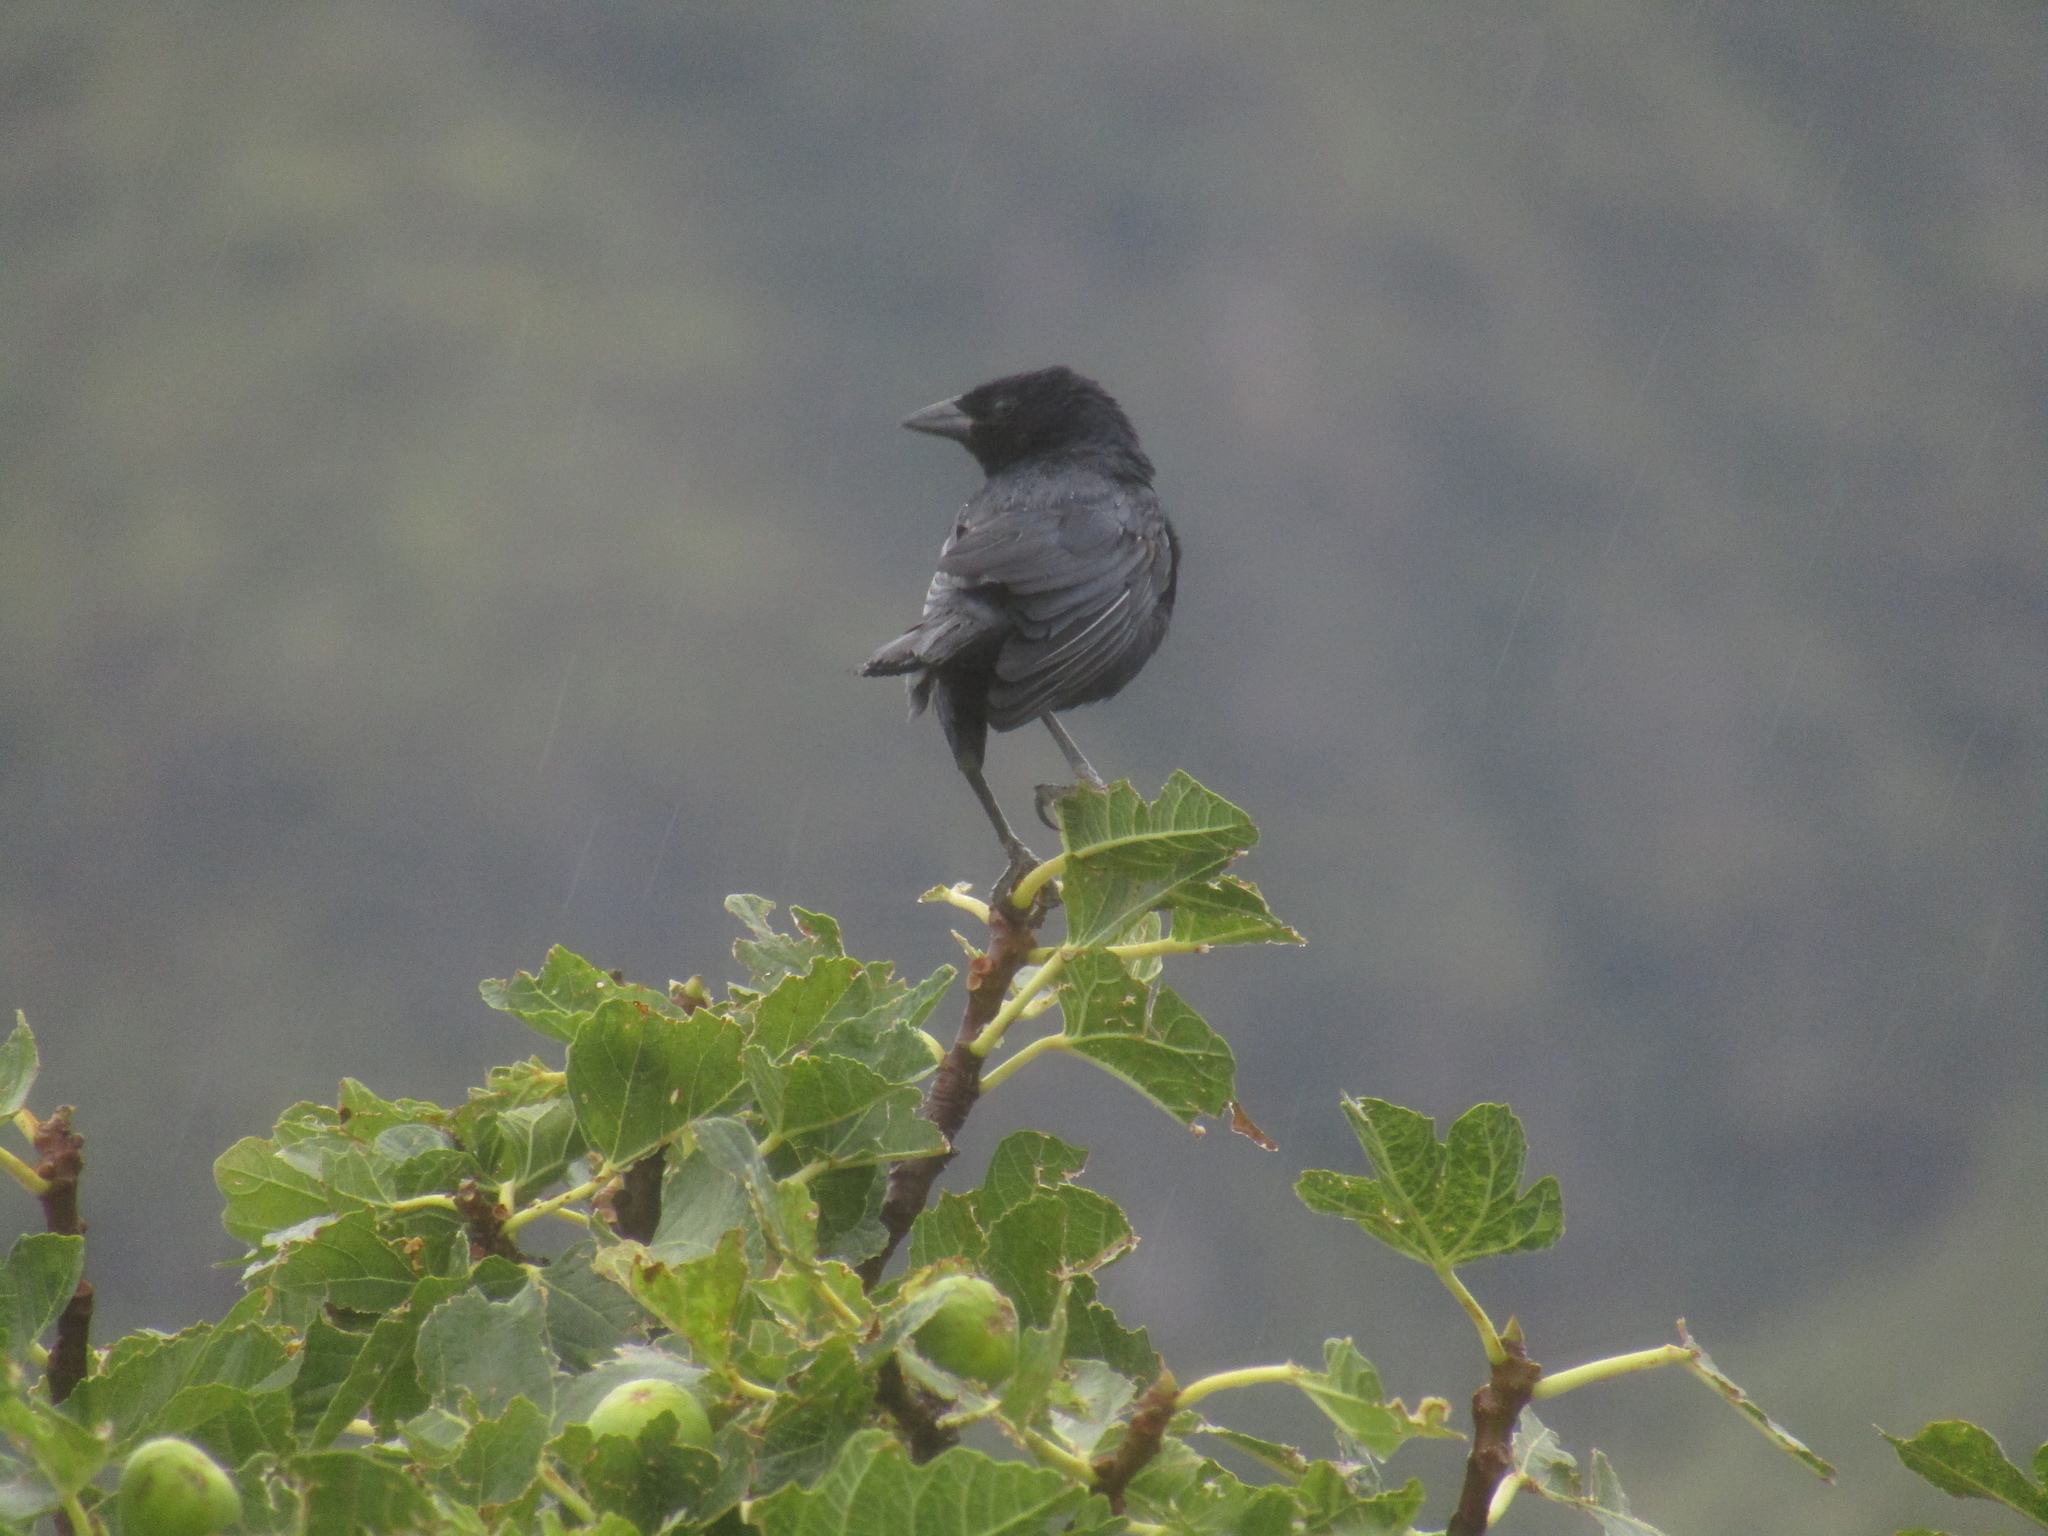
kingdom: Animalia
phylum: Chordata
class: Aves
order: Passeriformes
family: Icteridae
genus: Molothrus
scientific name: Molothrus bonariensis
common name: Shiny cowbird
